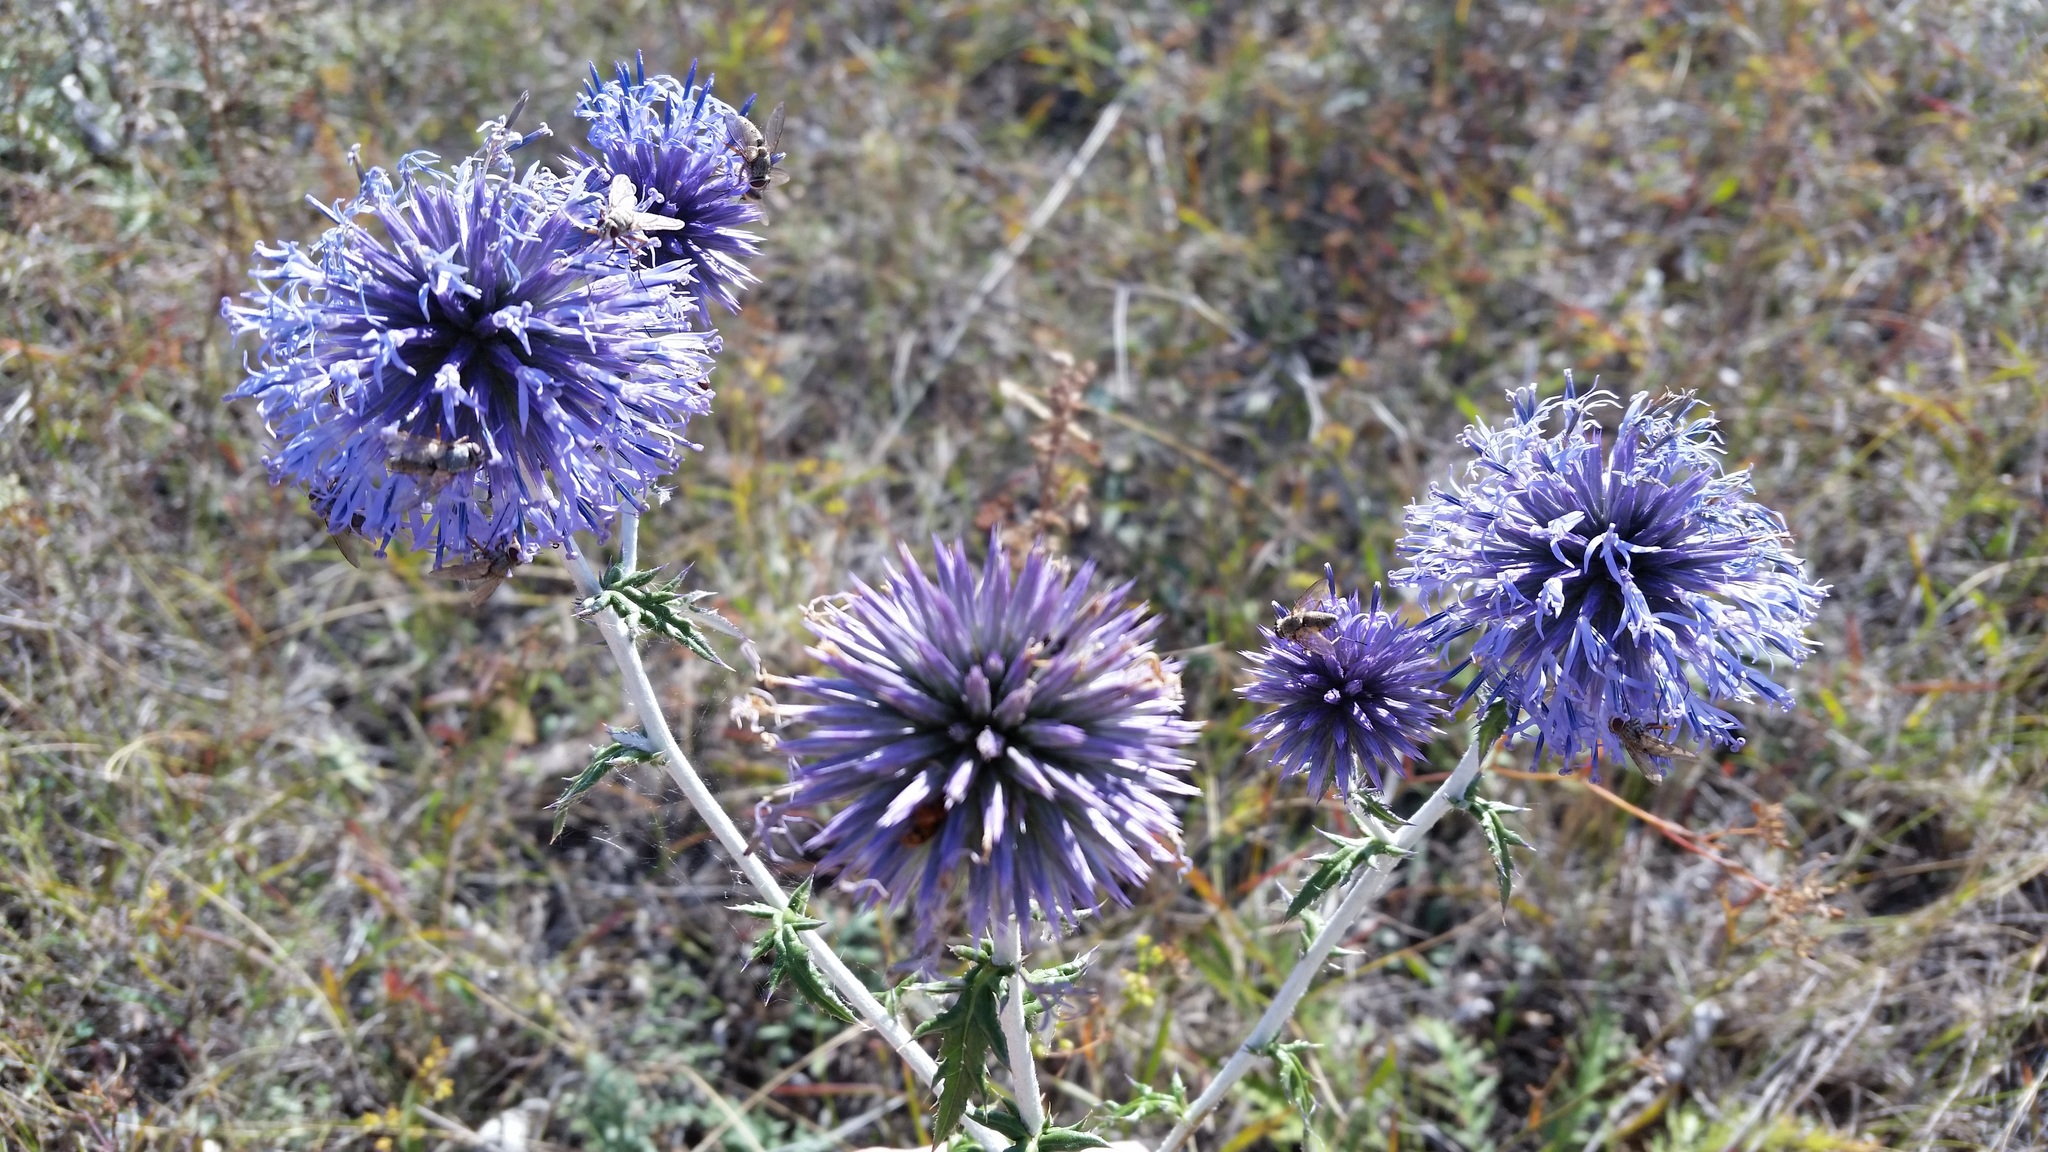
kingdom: Plantae
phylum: Tracheophyta
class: Magnoliopsida
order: Asterales
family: Asteraceae
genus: Echinops
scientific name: Echinops ritro
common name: Globe thistle
